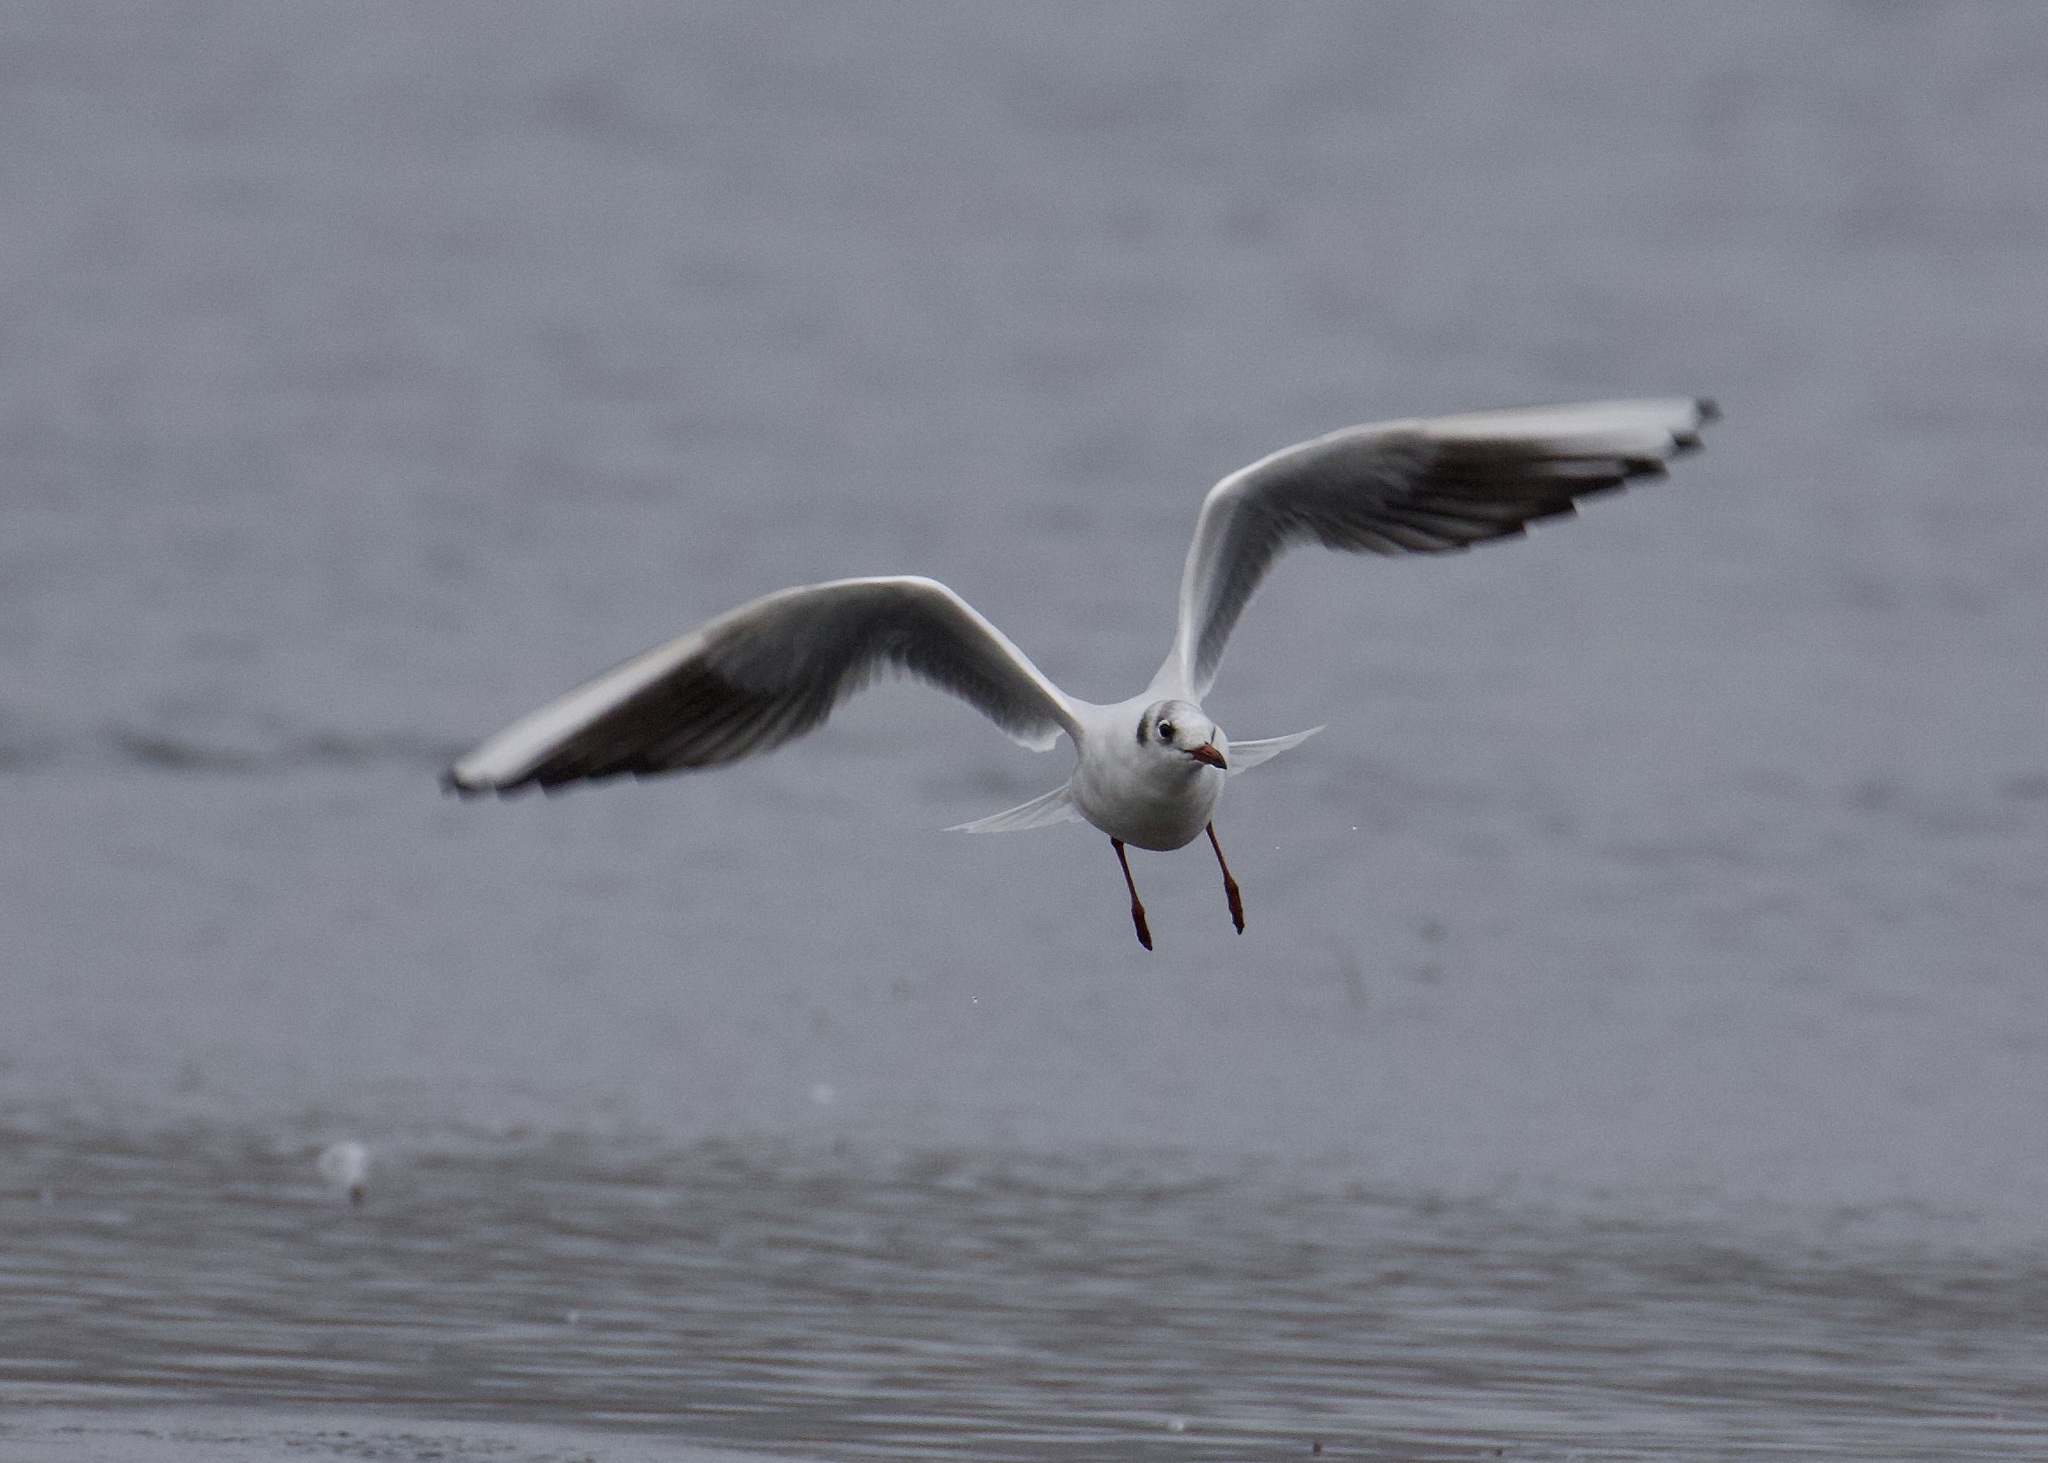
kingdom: Animalia
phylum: Chordata
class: Aves
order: Charadriiformes
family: Laridae
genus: Chroicocephalus
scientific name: Chroicocephalus ridibundus
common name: Black-headed gull
